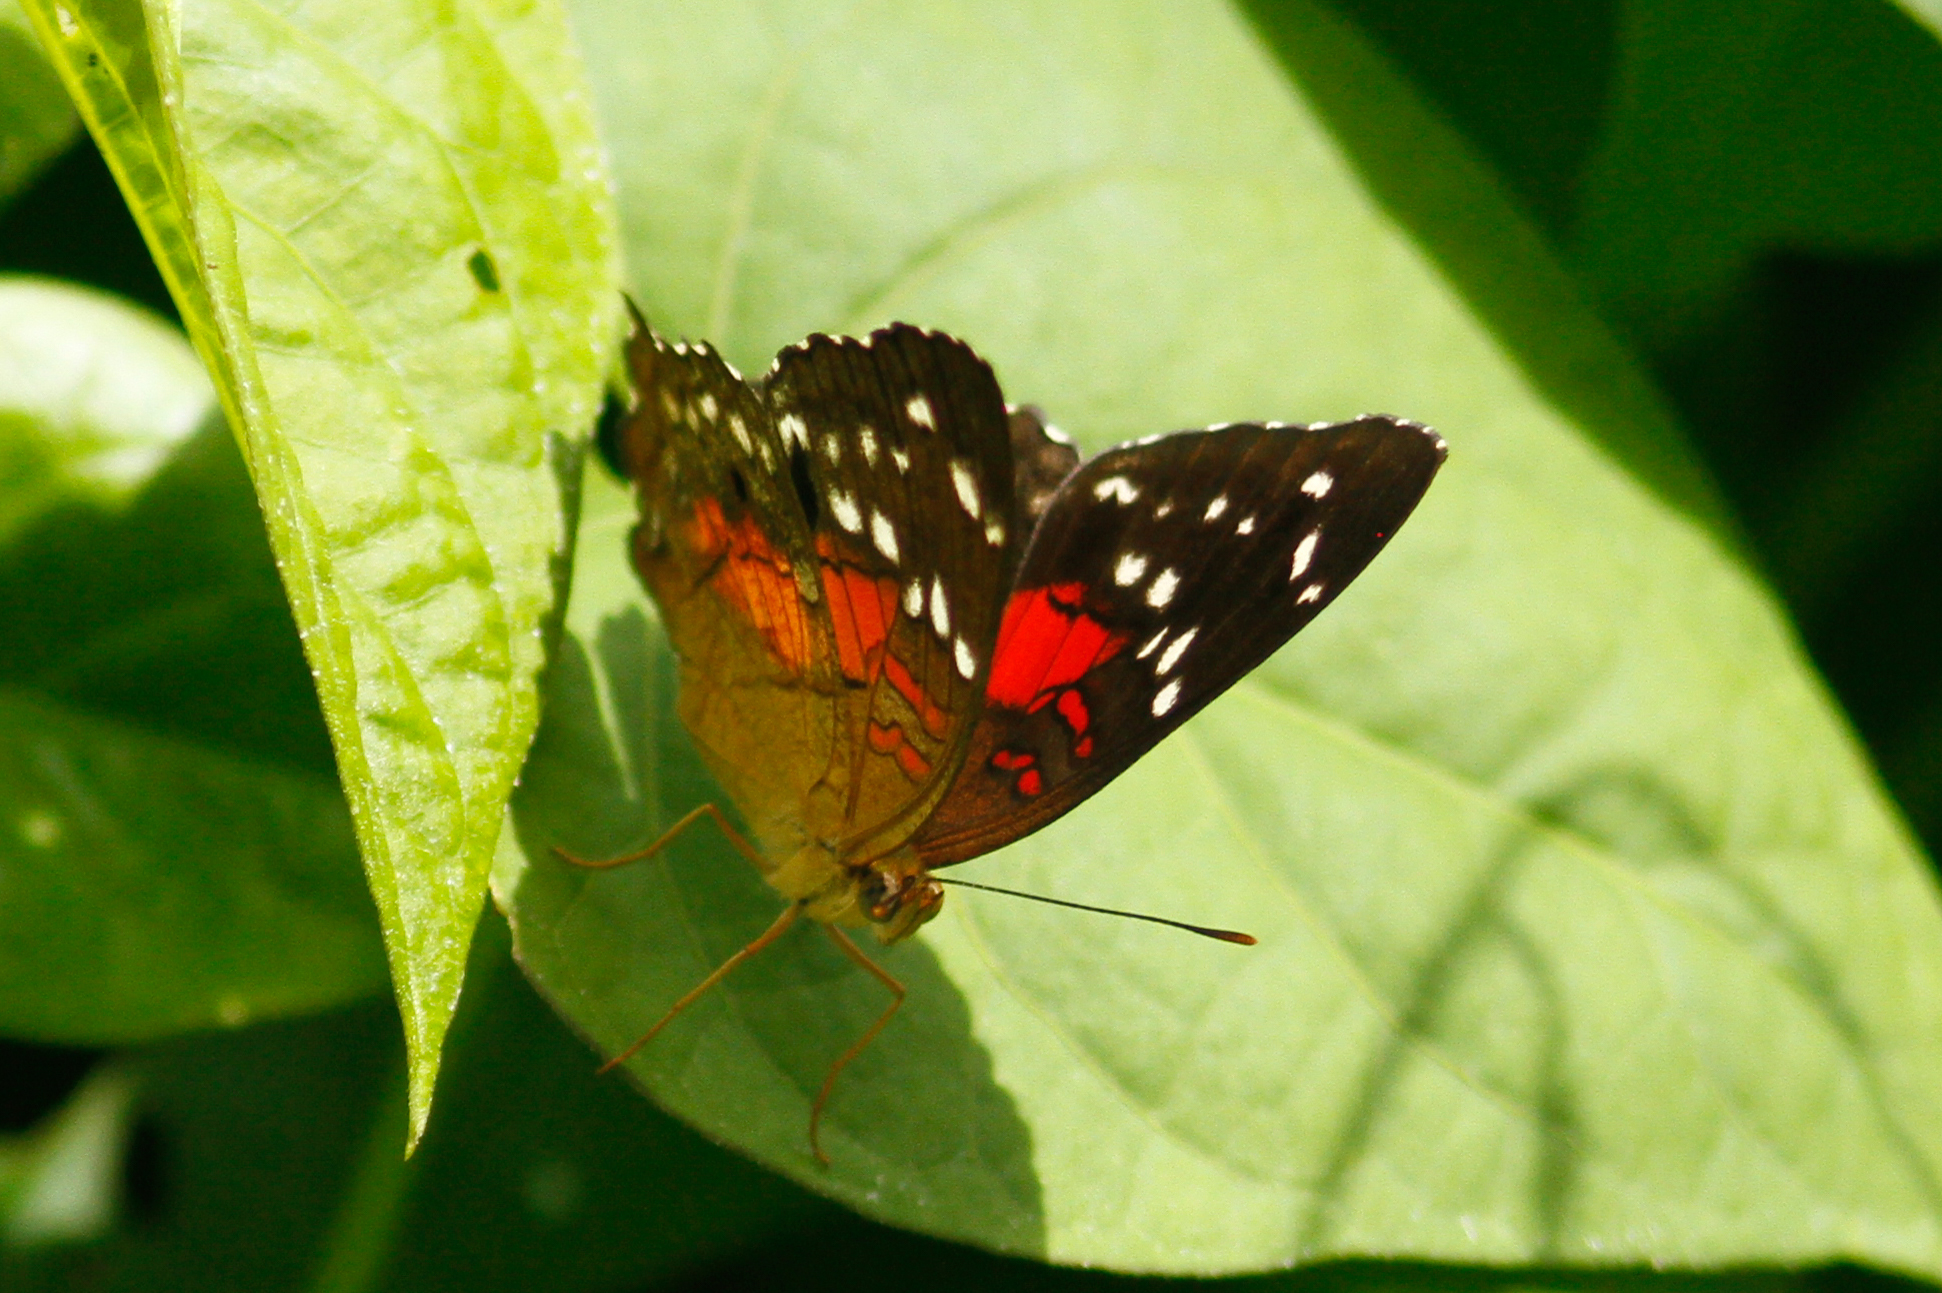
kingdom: Animalia
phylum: Arthropoda
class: Insecta
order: Lepidoptera
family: Nymphalidae
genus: Anartia
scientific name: Anartia amathea
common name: Red peacock
